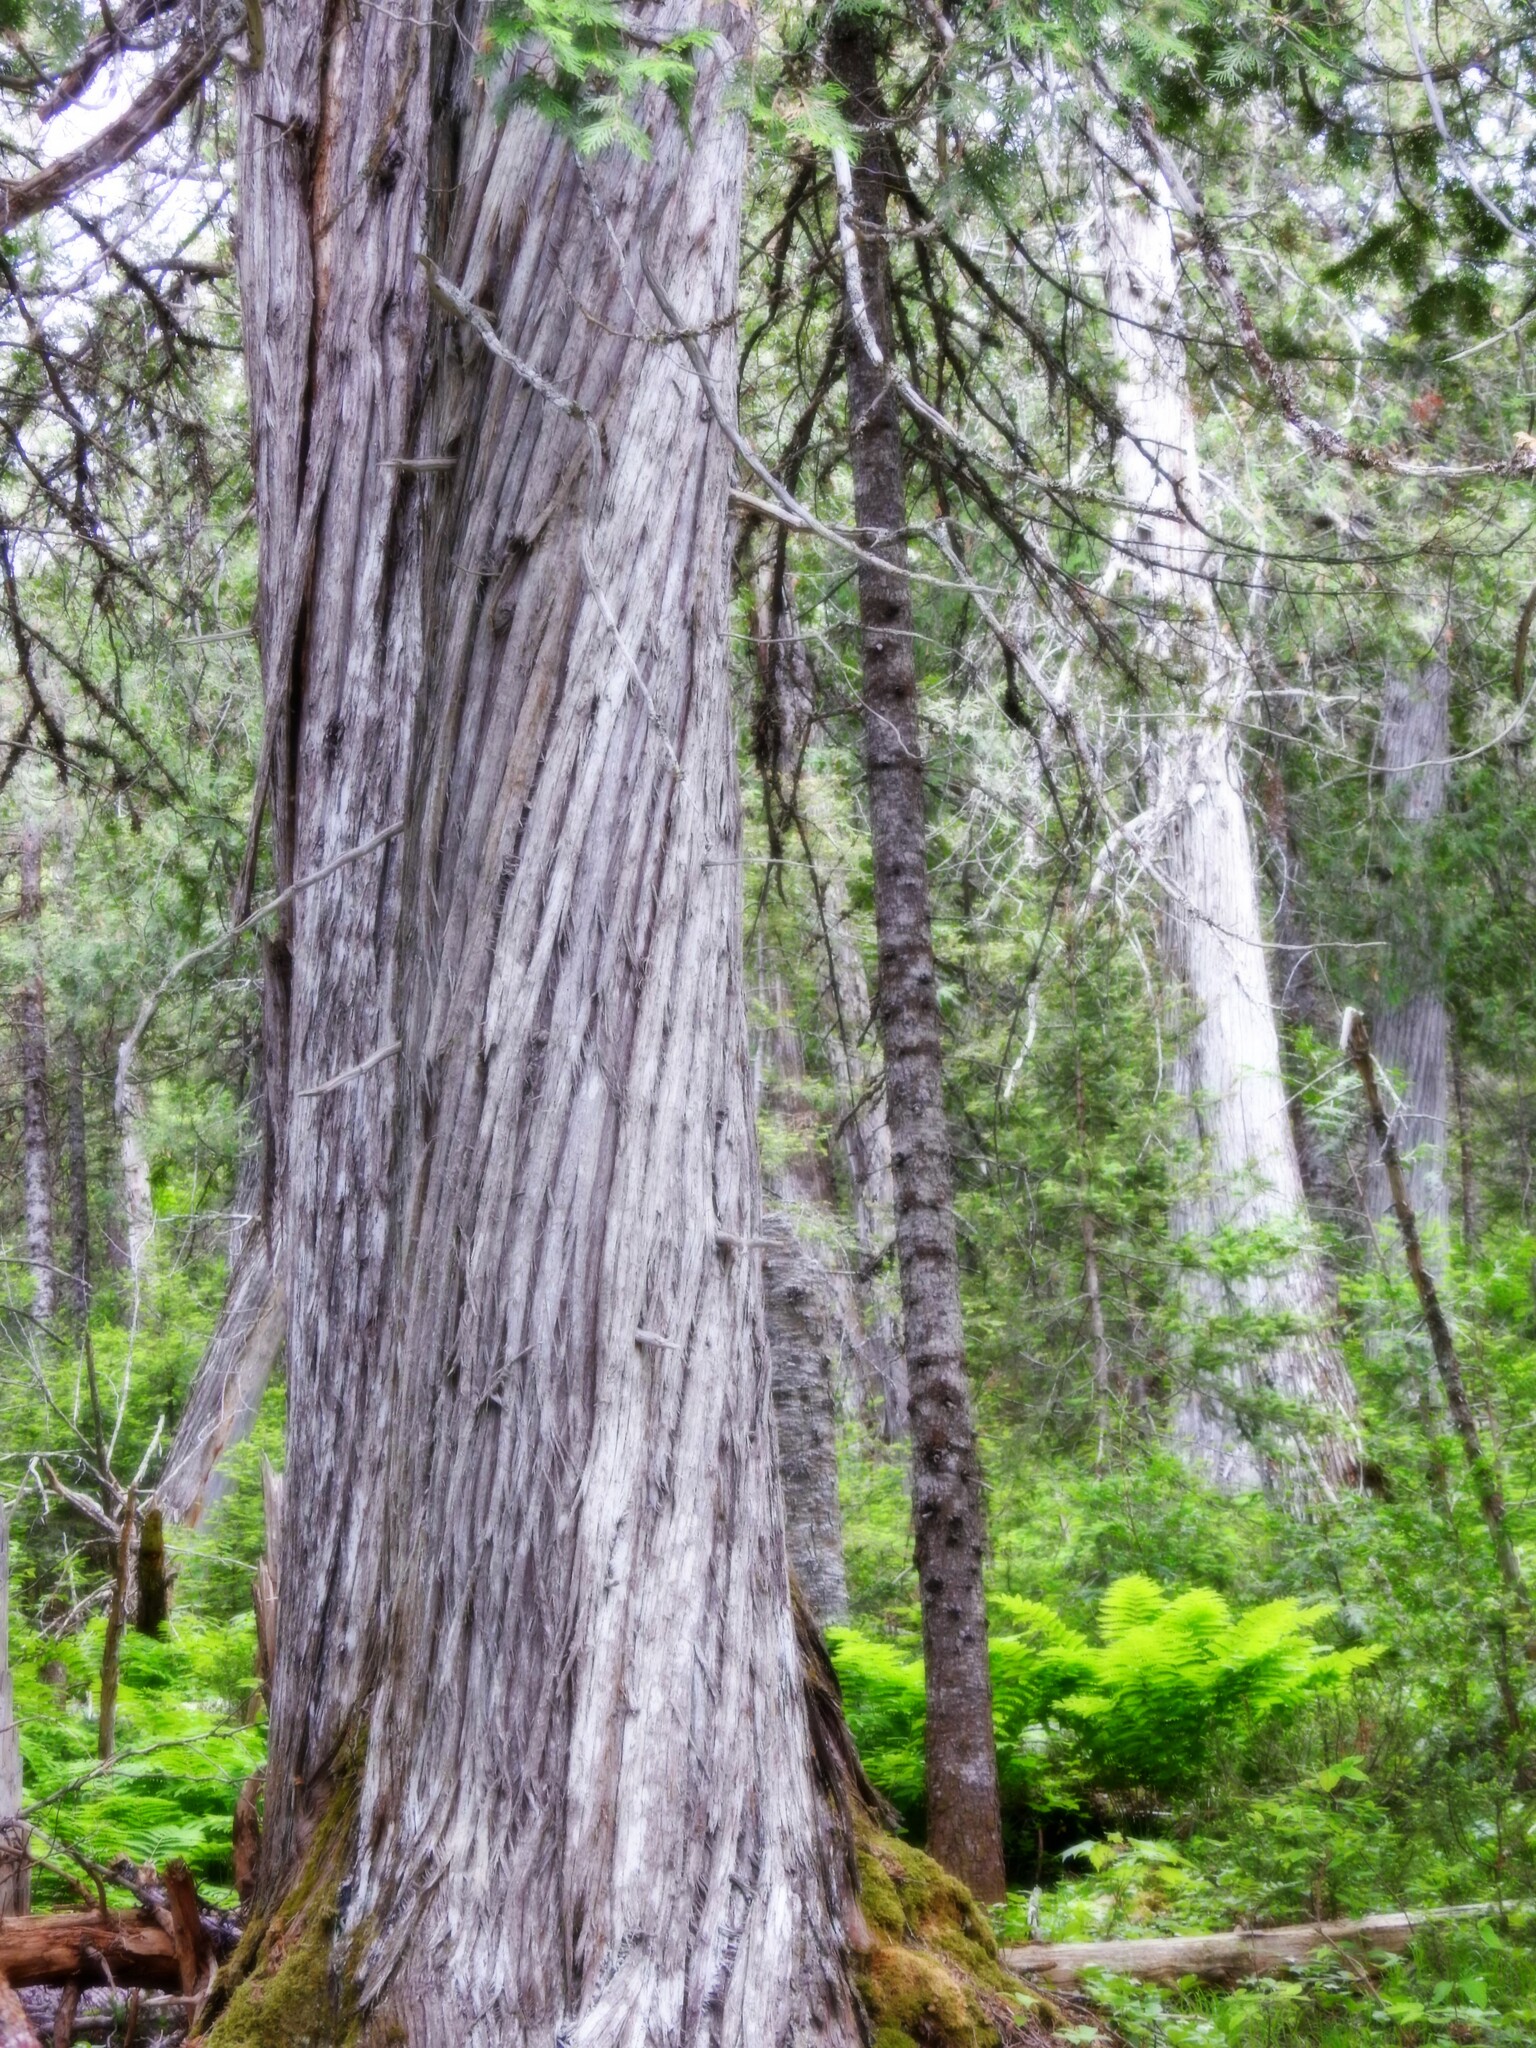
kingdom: Plantae
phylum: Tracheophyta
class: Pinopsida
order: Pinales
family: Cupressaceae
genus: Thuja
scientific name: Thuja occidentalis
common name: Northern white-cedar
